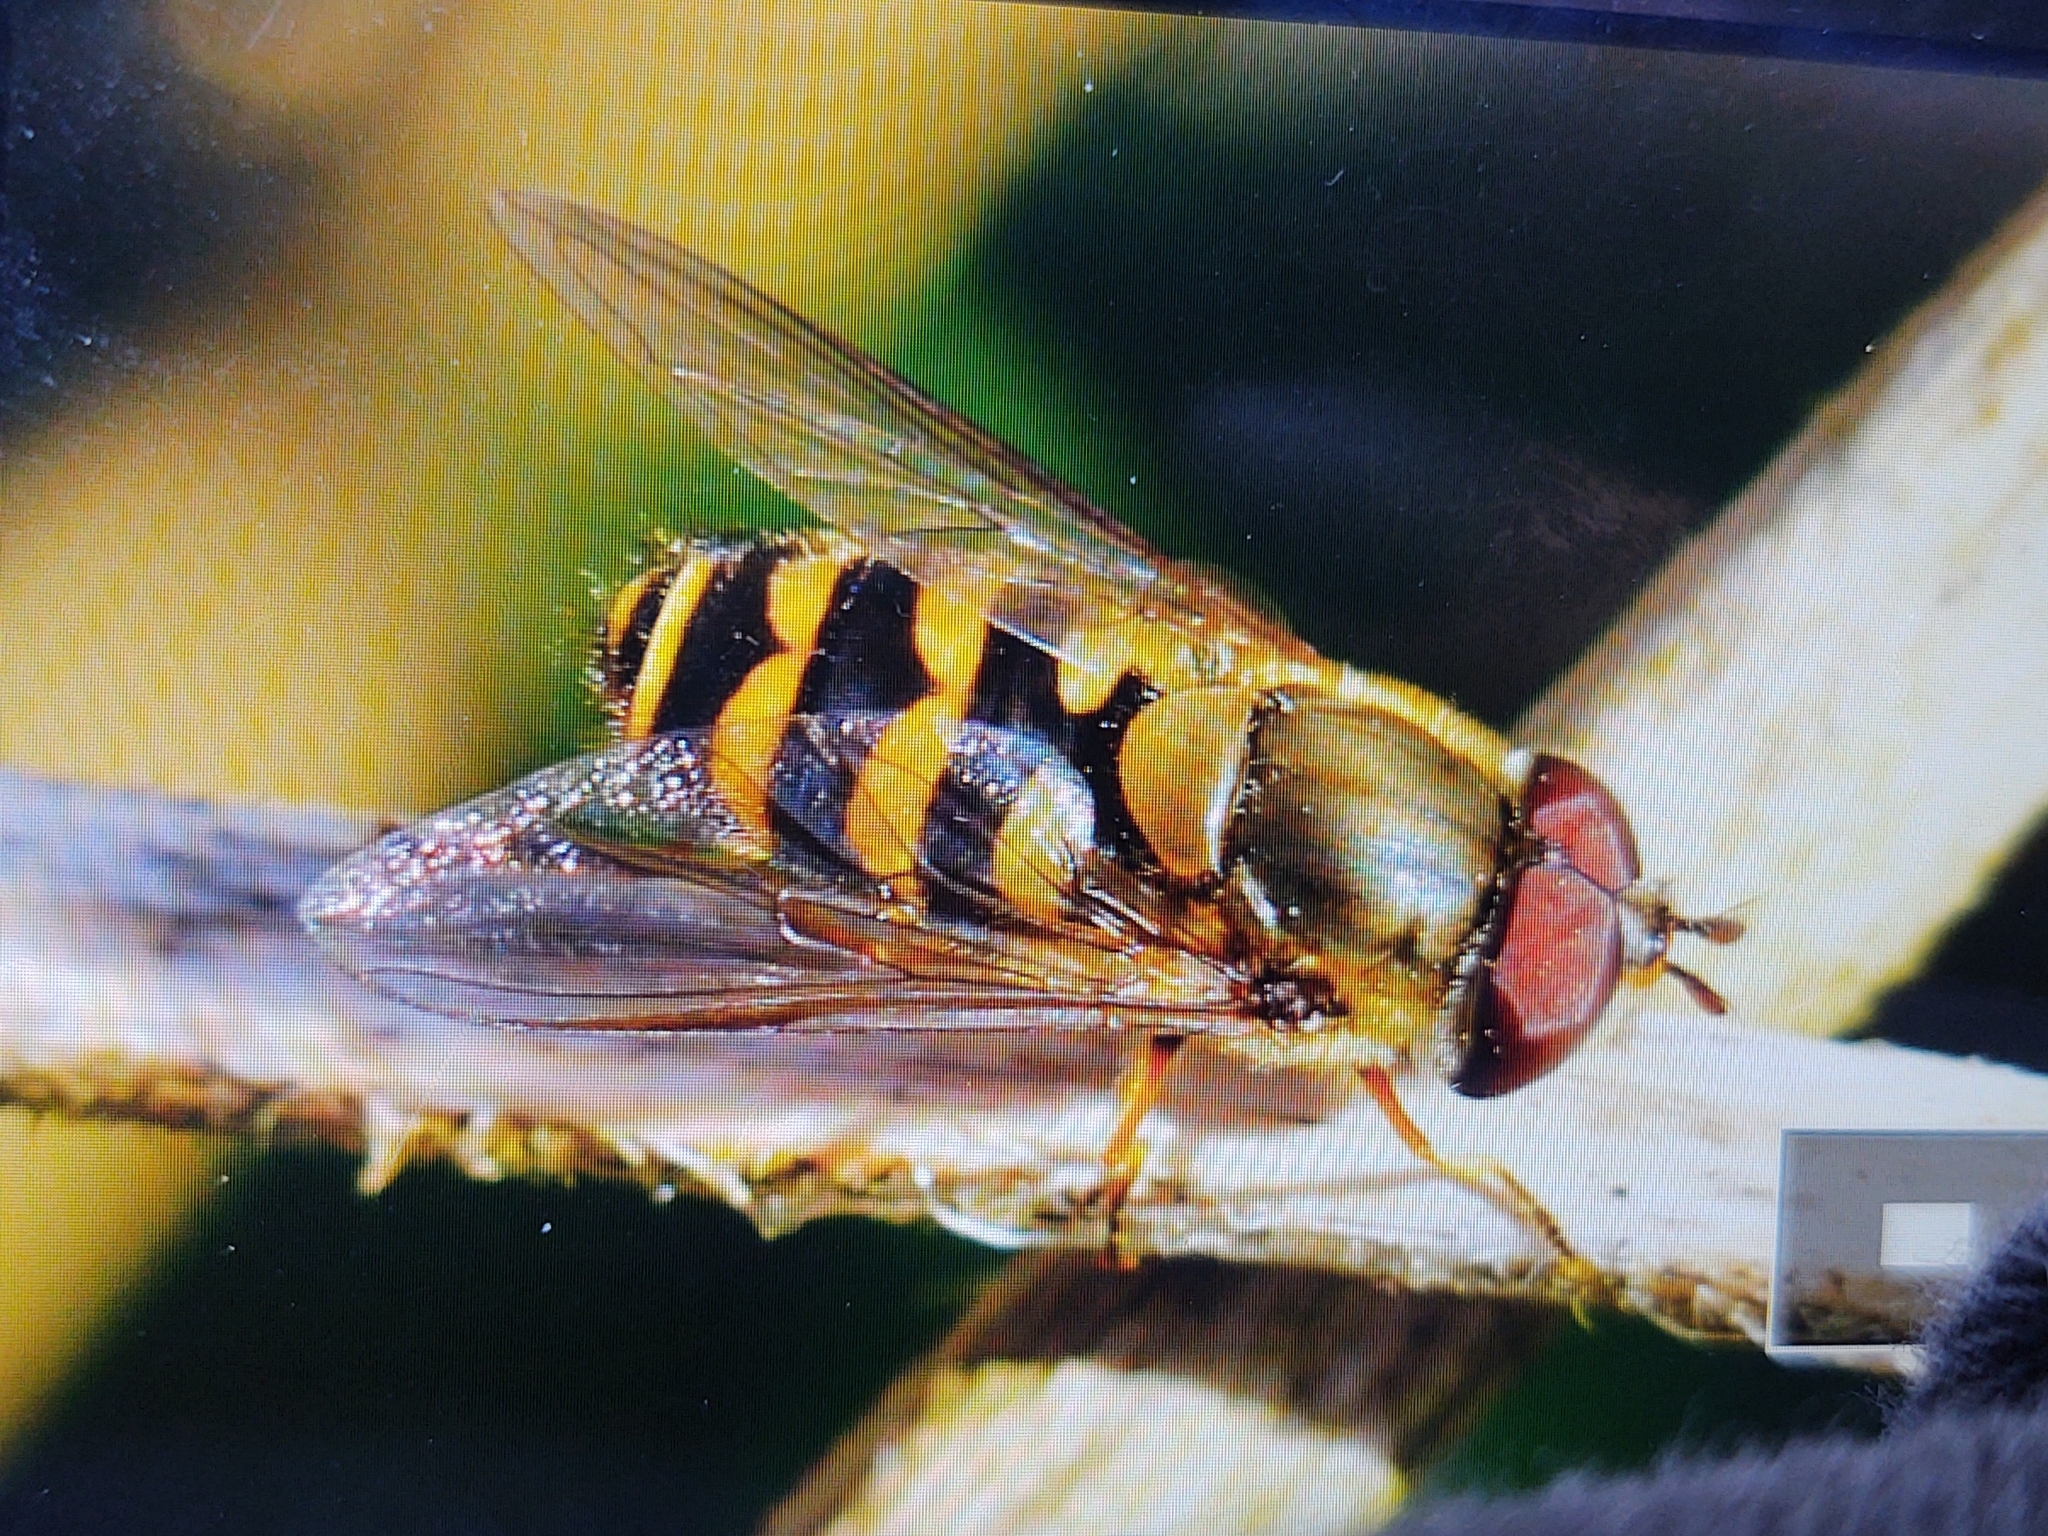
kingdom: Animalia
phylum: Arthropoda
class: Insecta
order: Diptera
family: Syrphidae
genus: Syrphus
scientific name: Syrphus torvus
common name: Hairy-eyed flower fly
